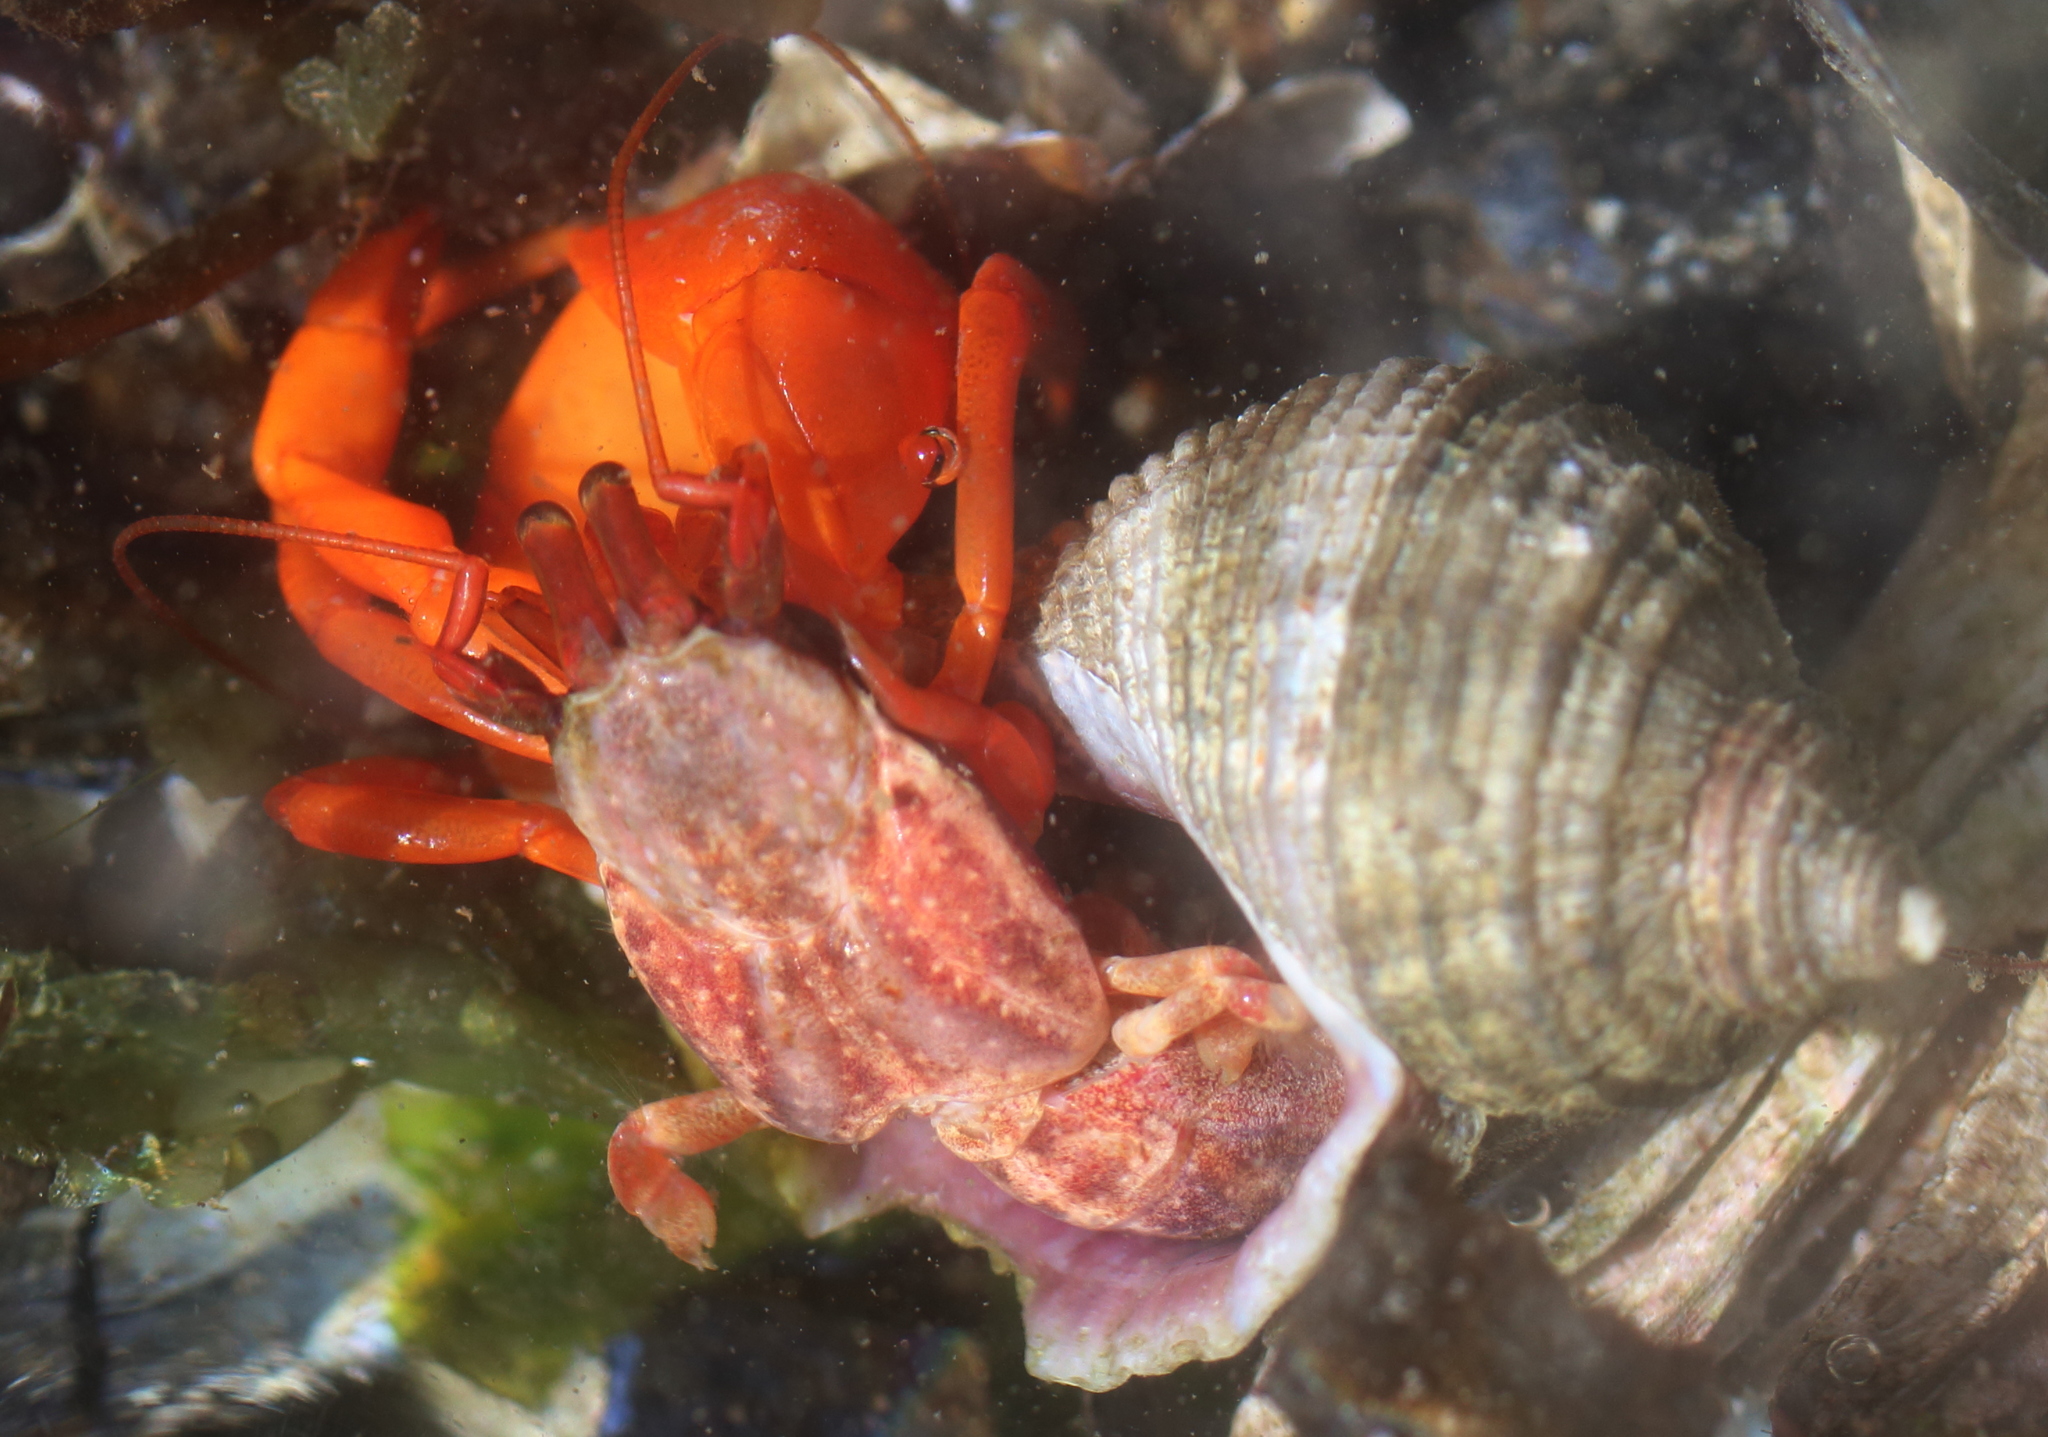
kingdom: Animalia
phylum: Arthropoda
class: Malacostraca
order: Decapoda
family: Paguridae
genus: Elassochirus
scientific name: Elassochirus gilli
